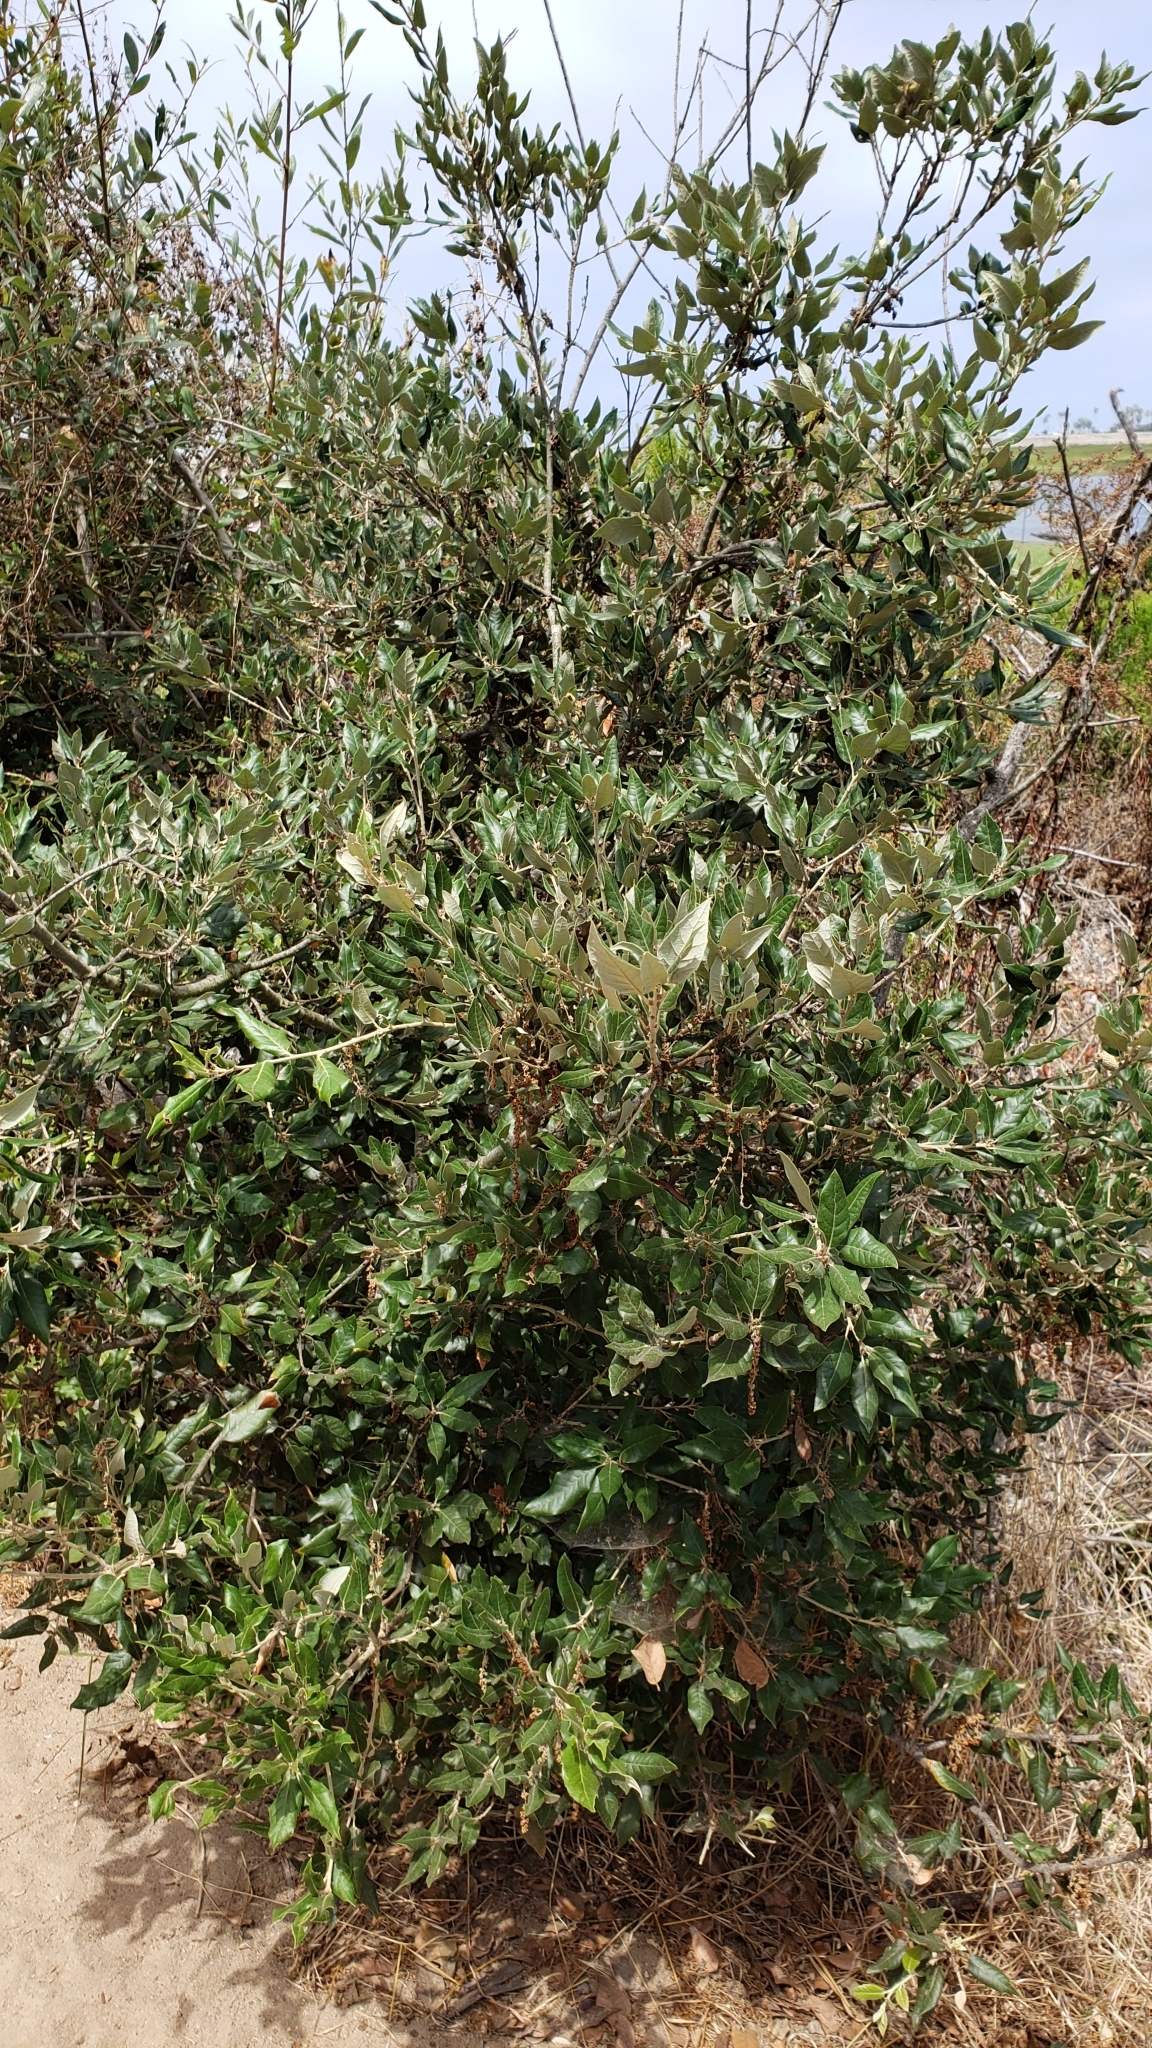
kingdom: Plantae
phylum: Tracheophyta
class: Magnoliopsida
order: Fagales
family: Fagaceae
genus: Quercus
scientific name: Quercus ilex
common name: Evergreen oak
